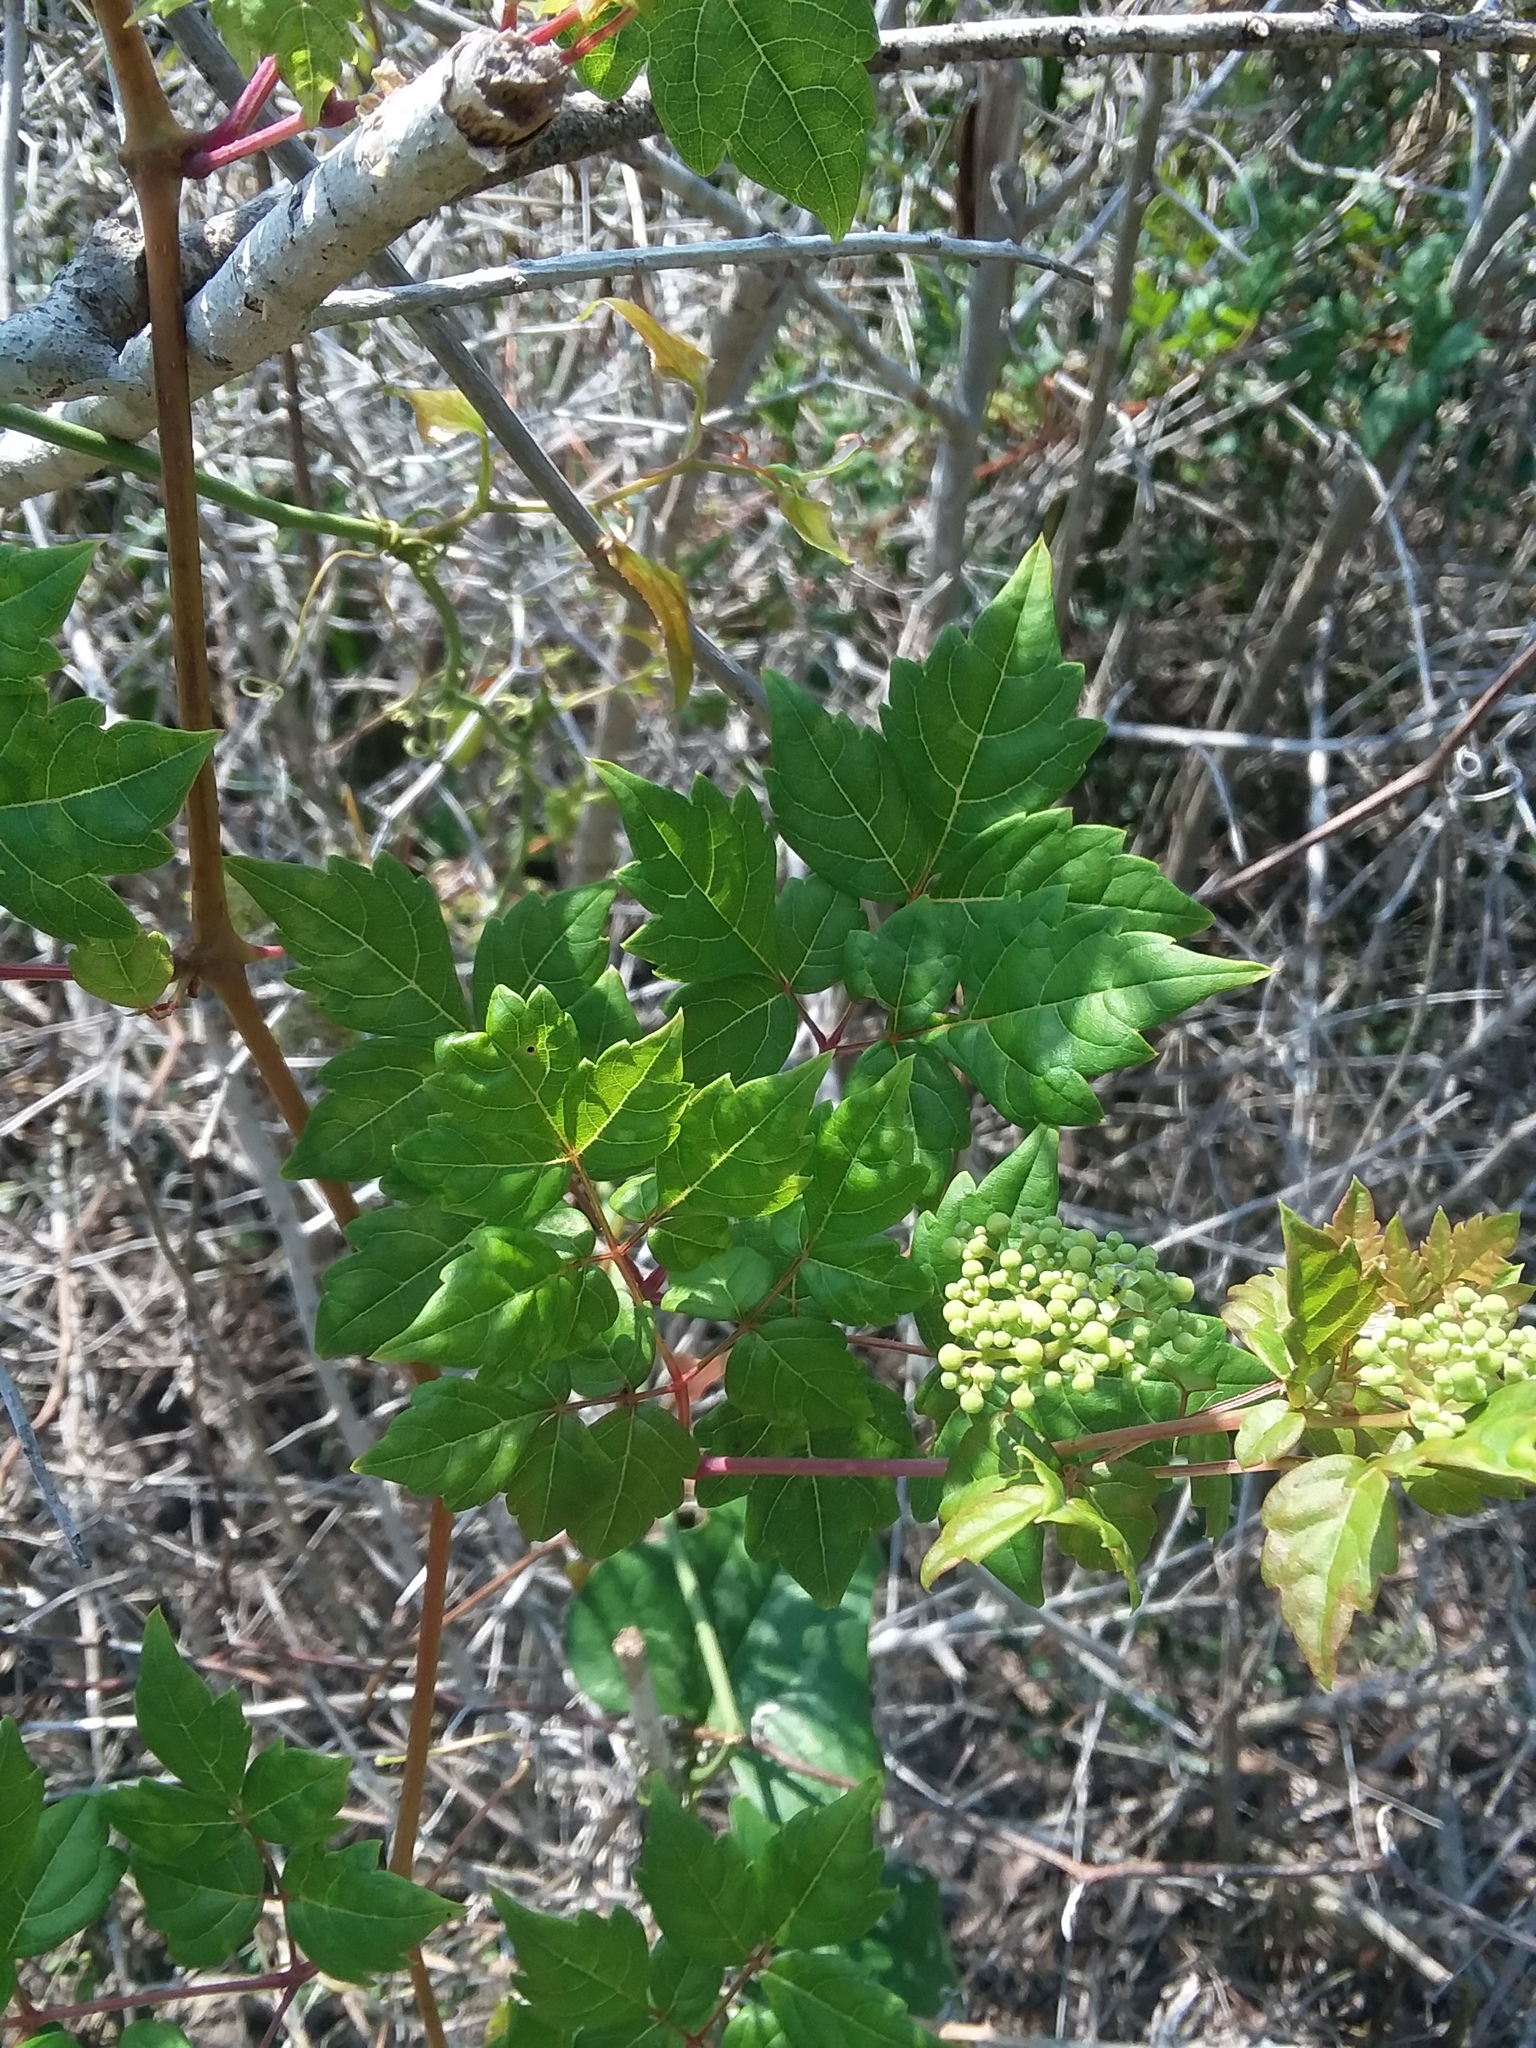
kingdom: Plantae
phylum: Tracheophyta
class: Magnoliopsida
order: Vitales
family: Vitaceae
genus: Nekemias
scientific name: Nekemias arborea
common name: Peppervine
